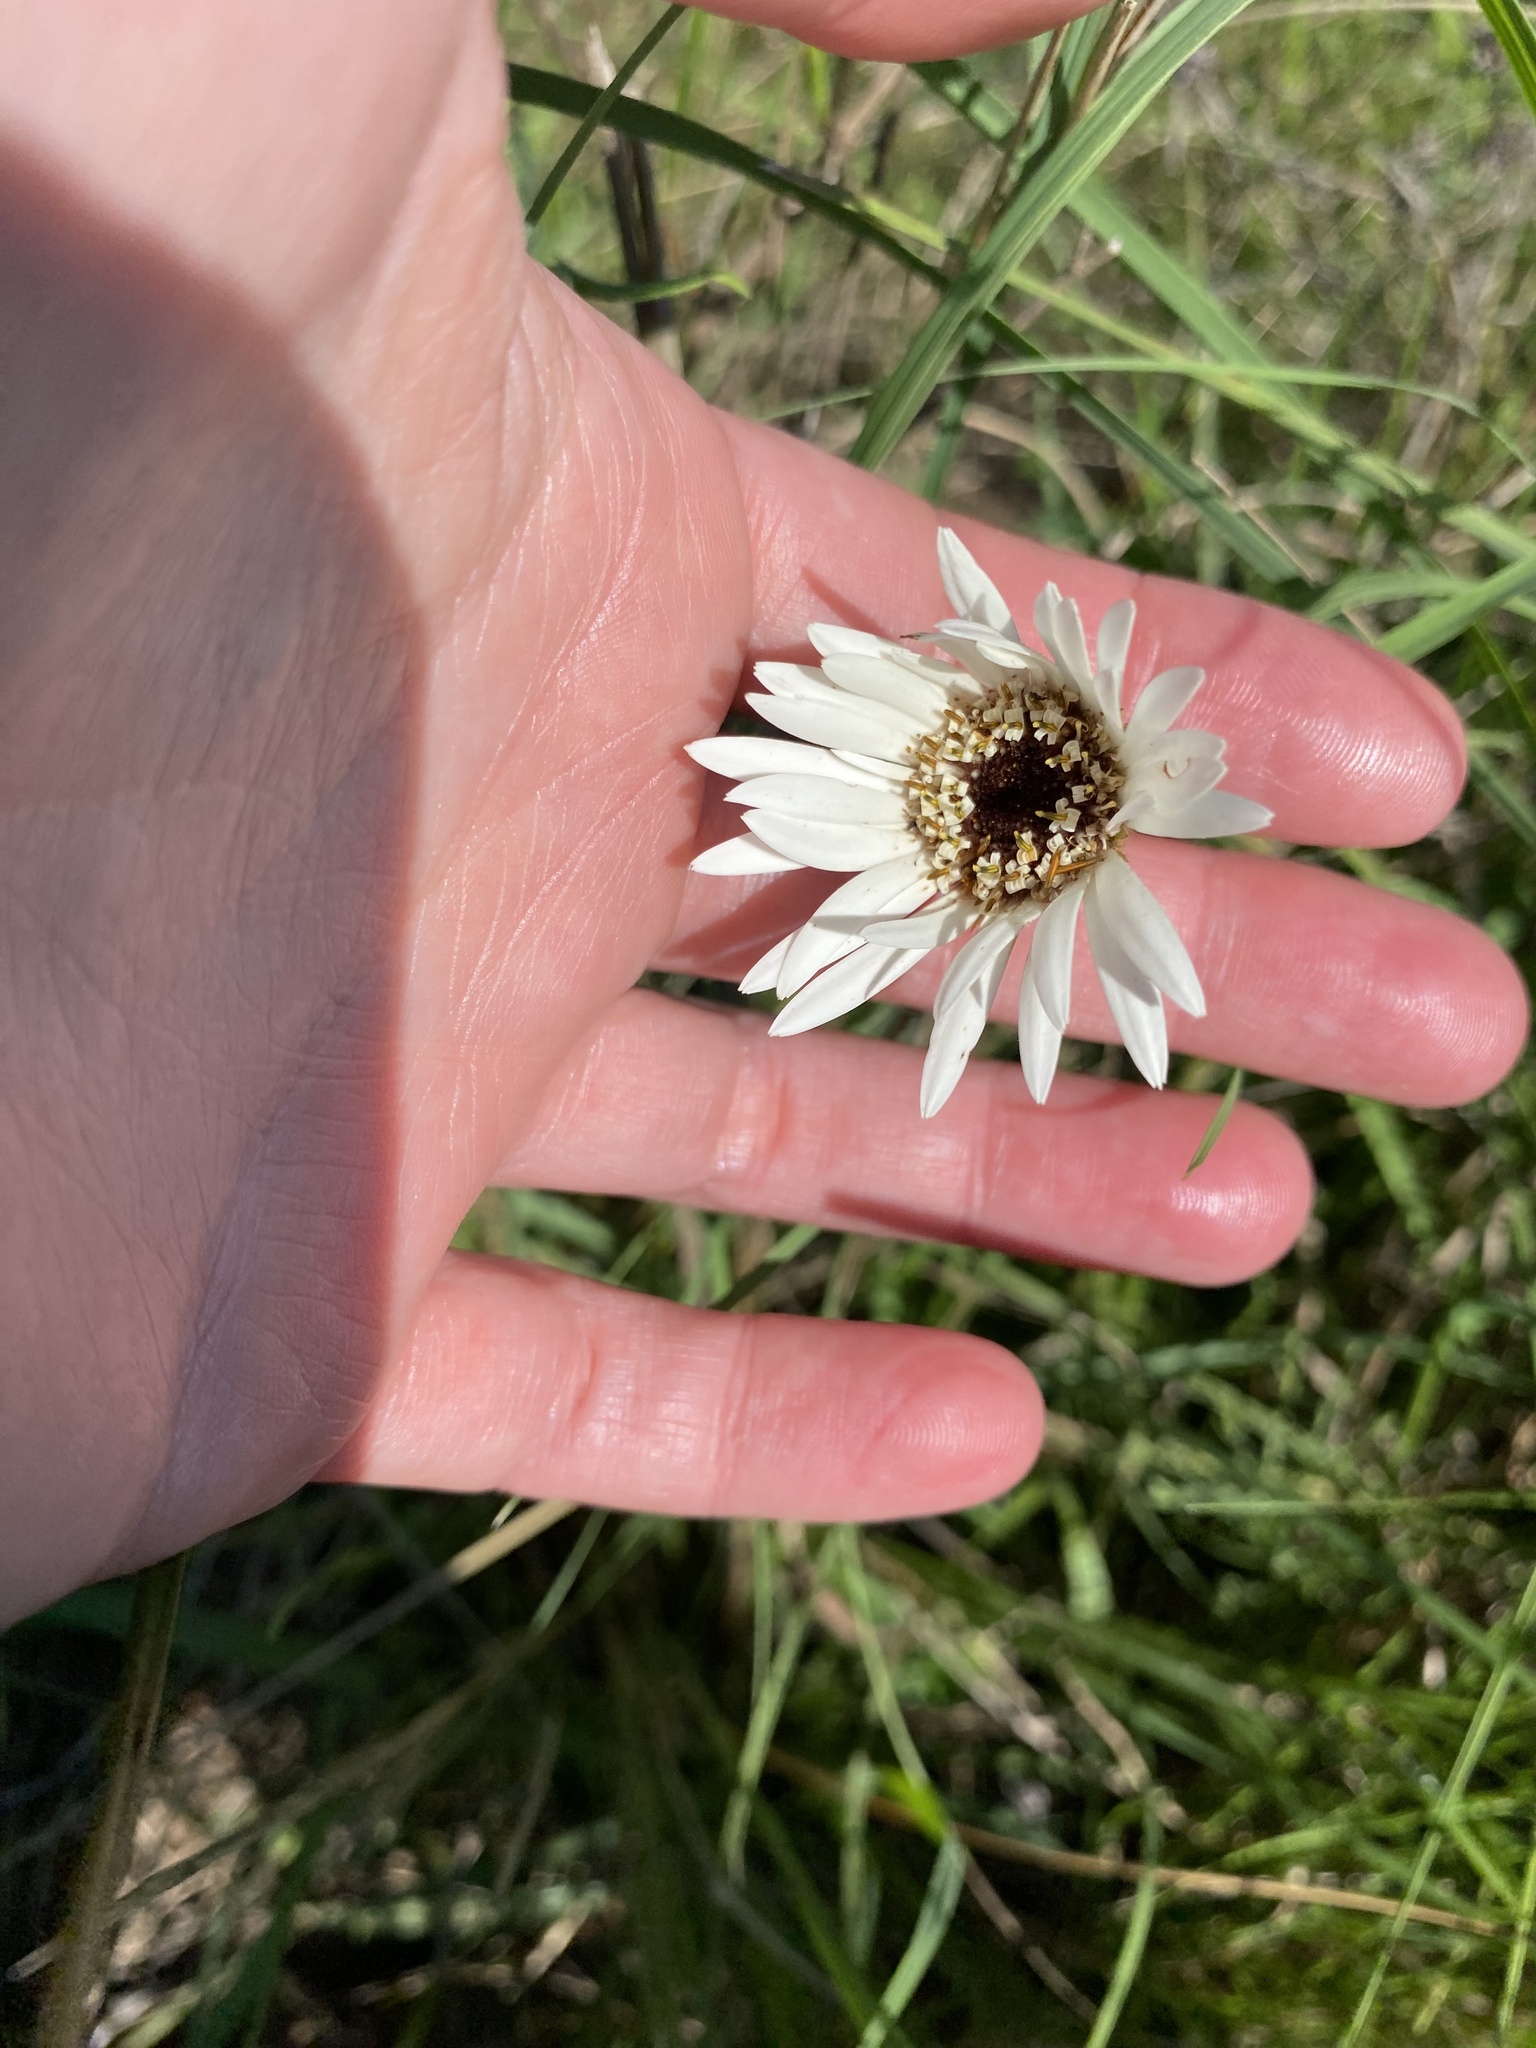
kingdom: Plantae
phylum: Tracheophyta
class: Magnoliopsida
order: Asterales
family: Asteraceae
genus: Gerbera
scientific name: Gerbera ambigua
